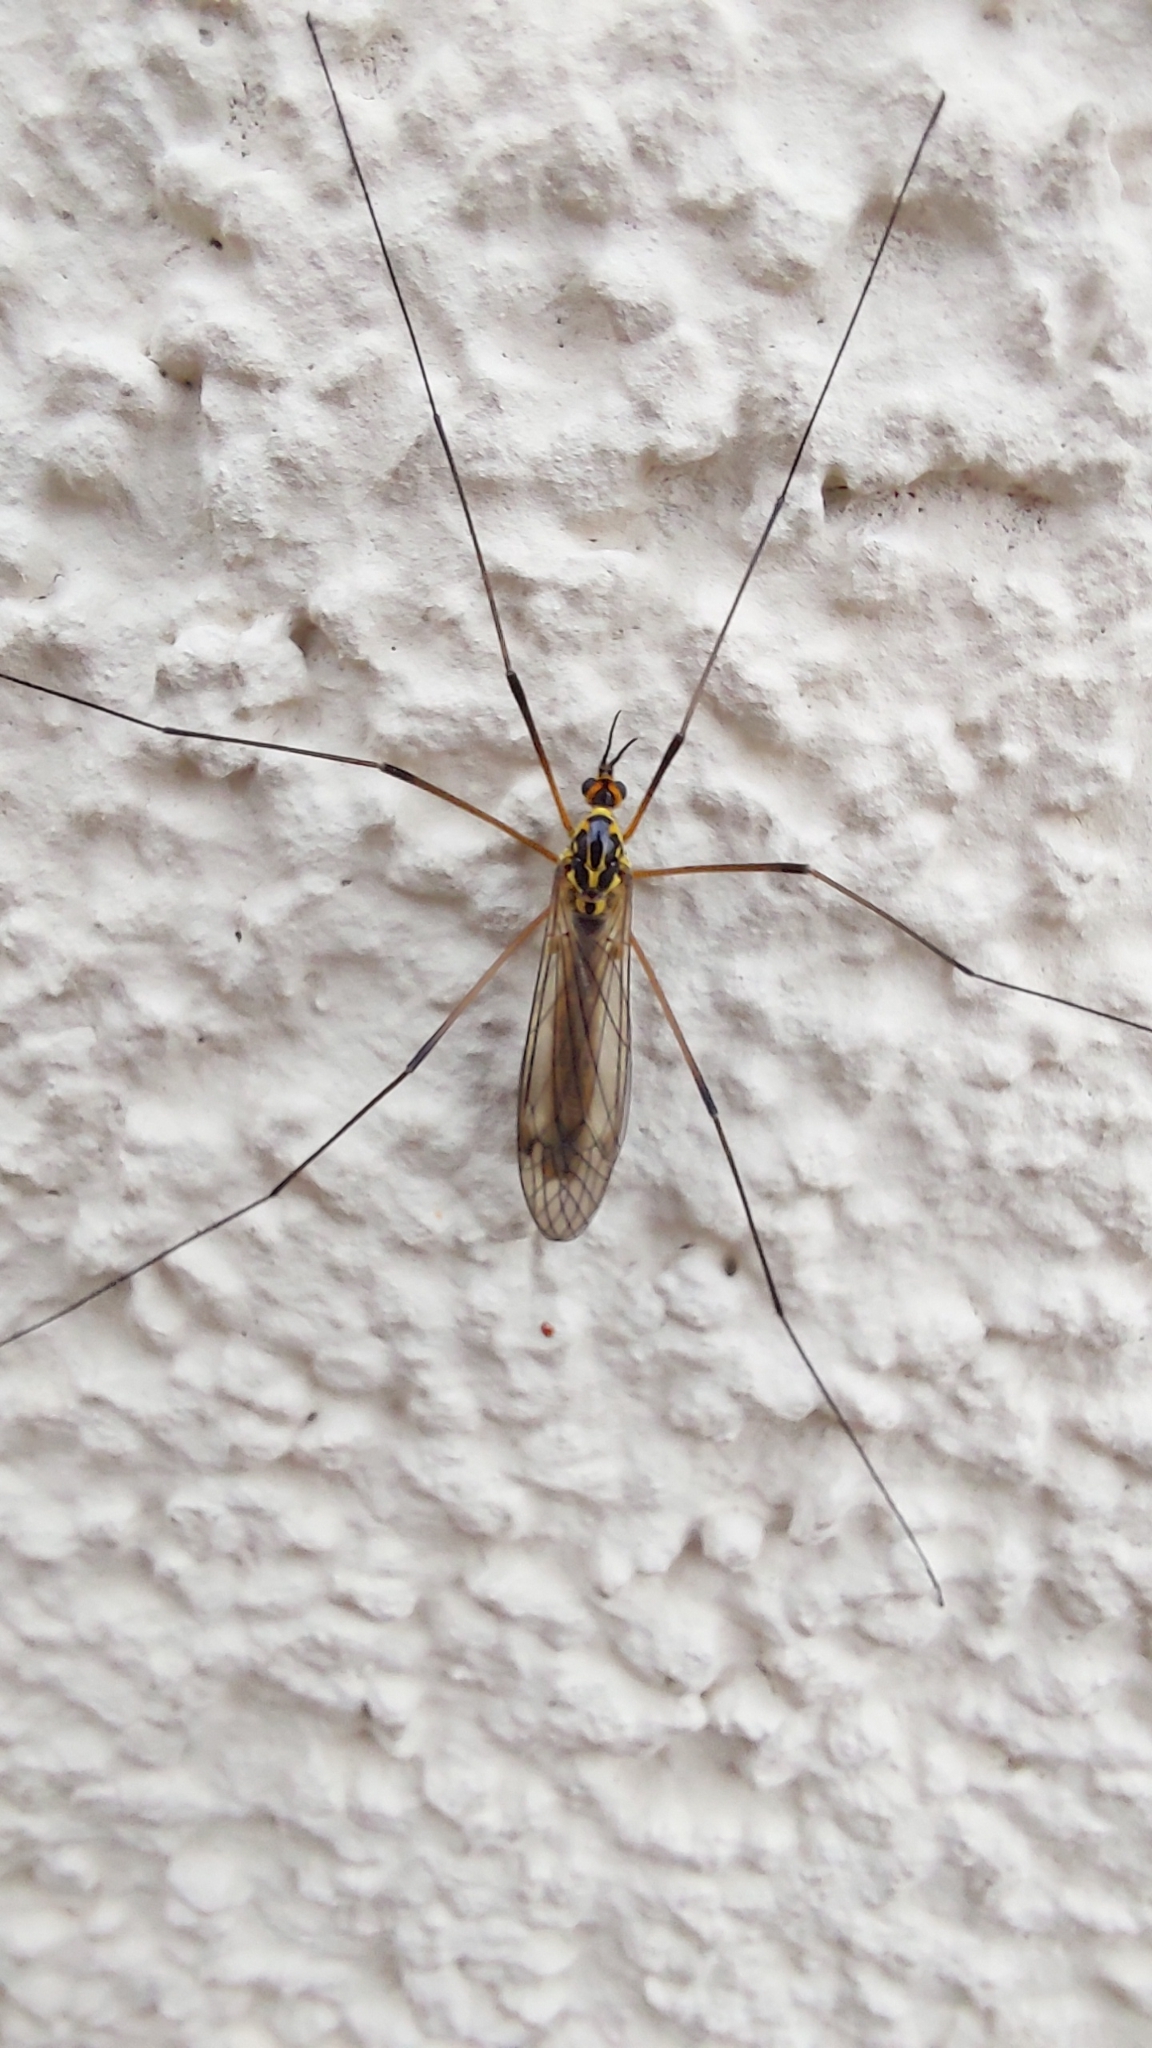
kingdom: Animalia
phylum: Arthropoda
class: Insecta
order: Diptera
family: Tipulidae
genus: Nephrotoma
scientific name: Nephrotoma appendiculata
